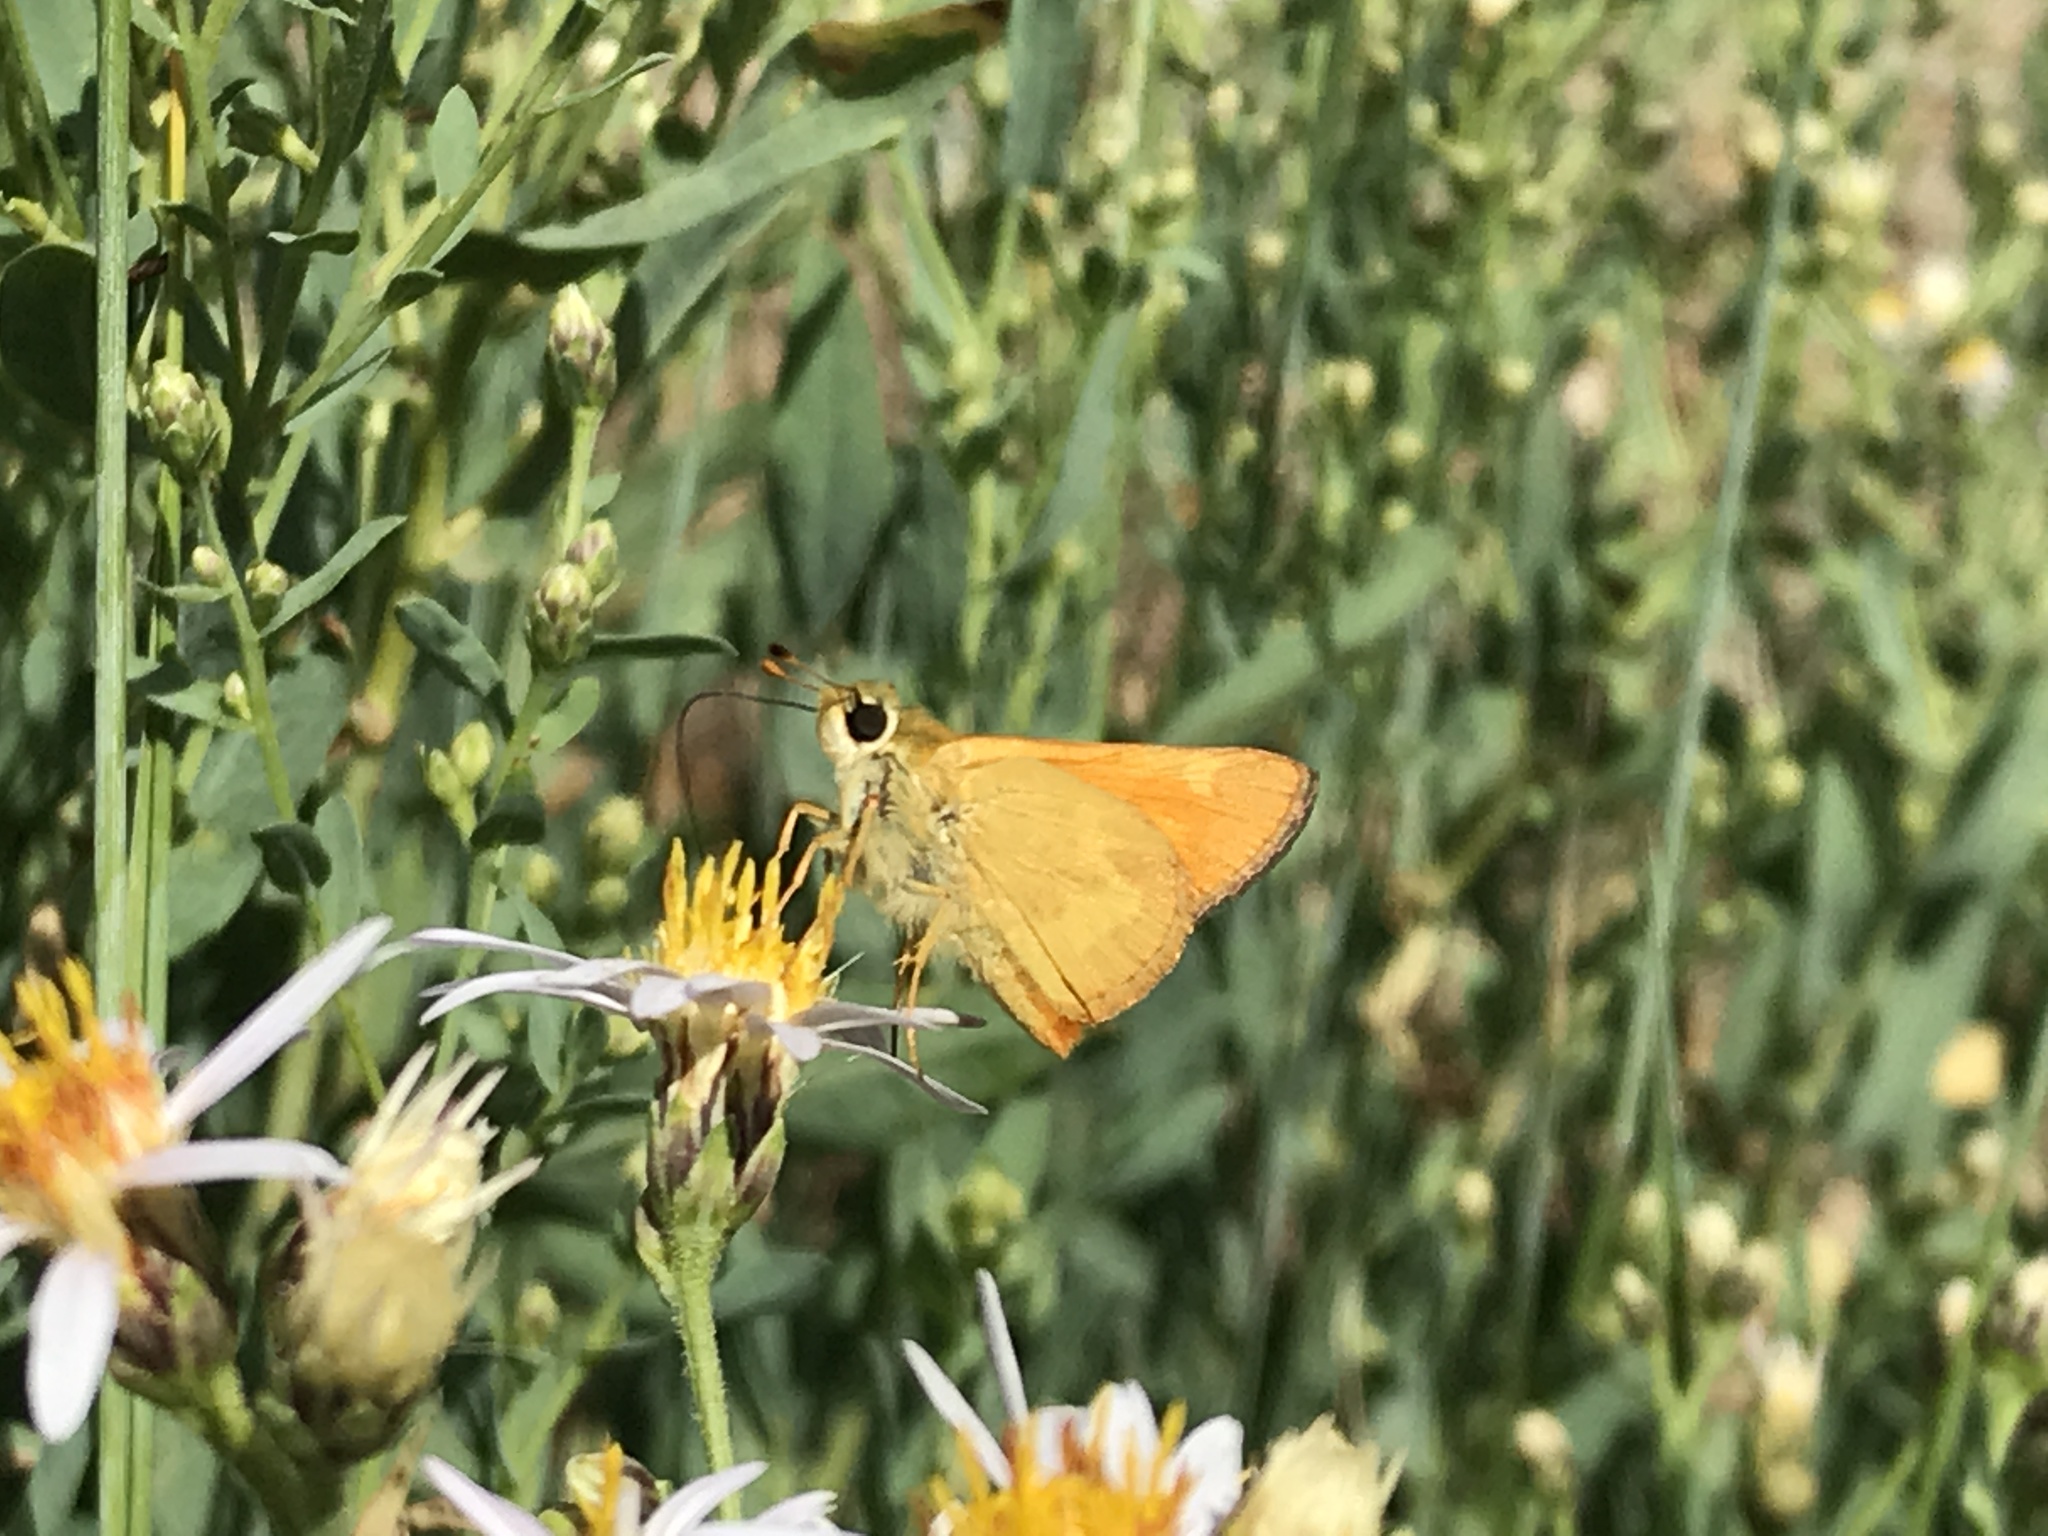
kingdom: Animalia
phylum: Arthropoda
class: Insecta
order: Lepidoptera
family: Hesperiidae
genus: Ochlodes
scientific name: Ochlodes sylvanoides
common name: Woodland skipper
